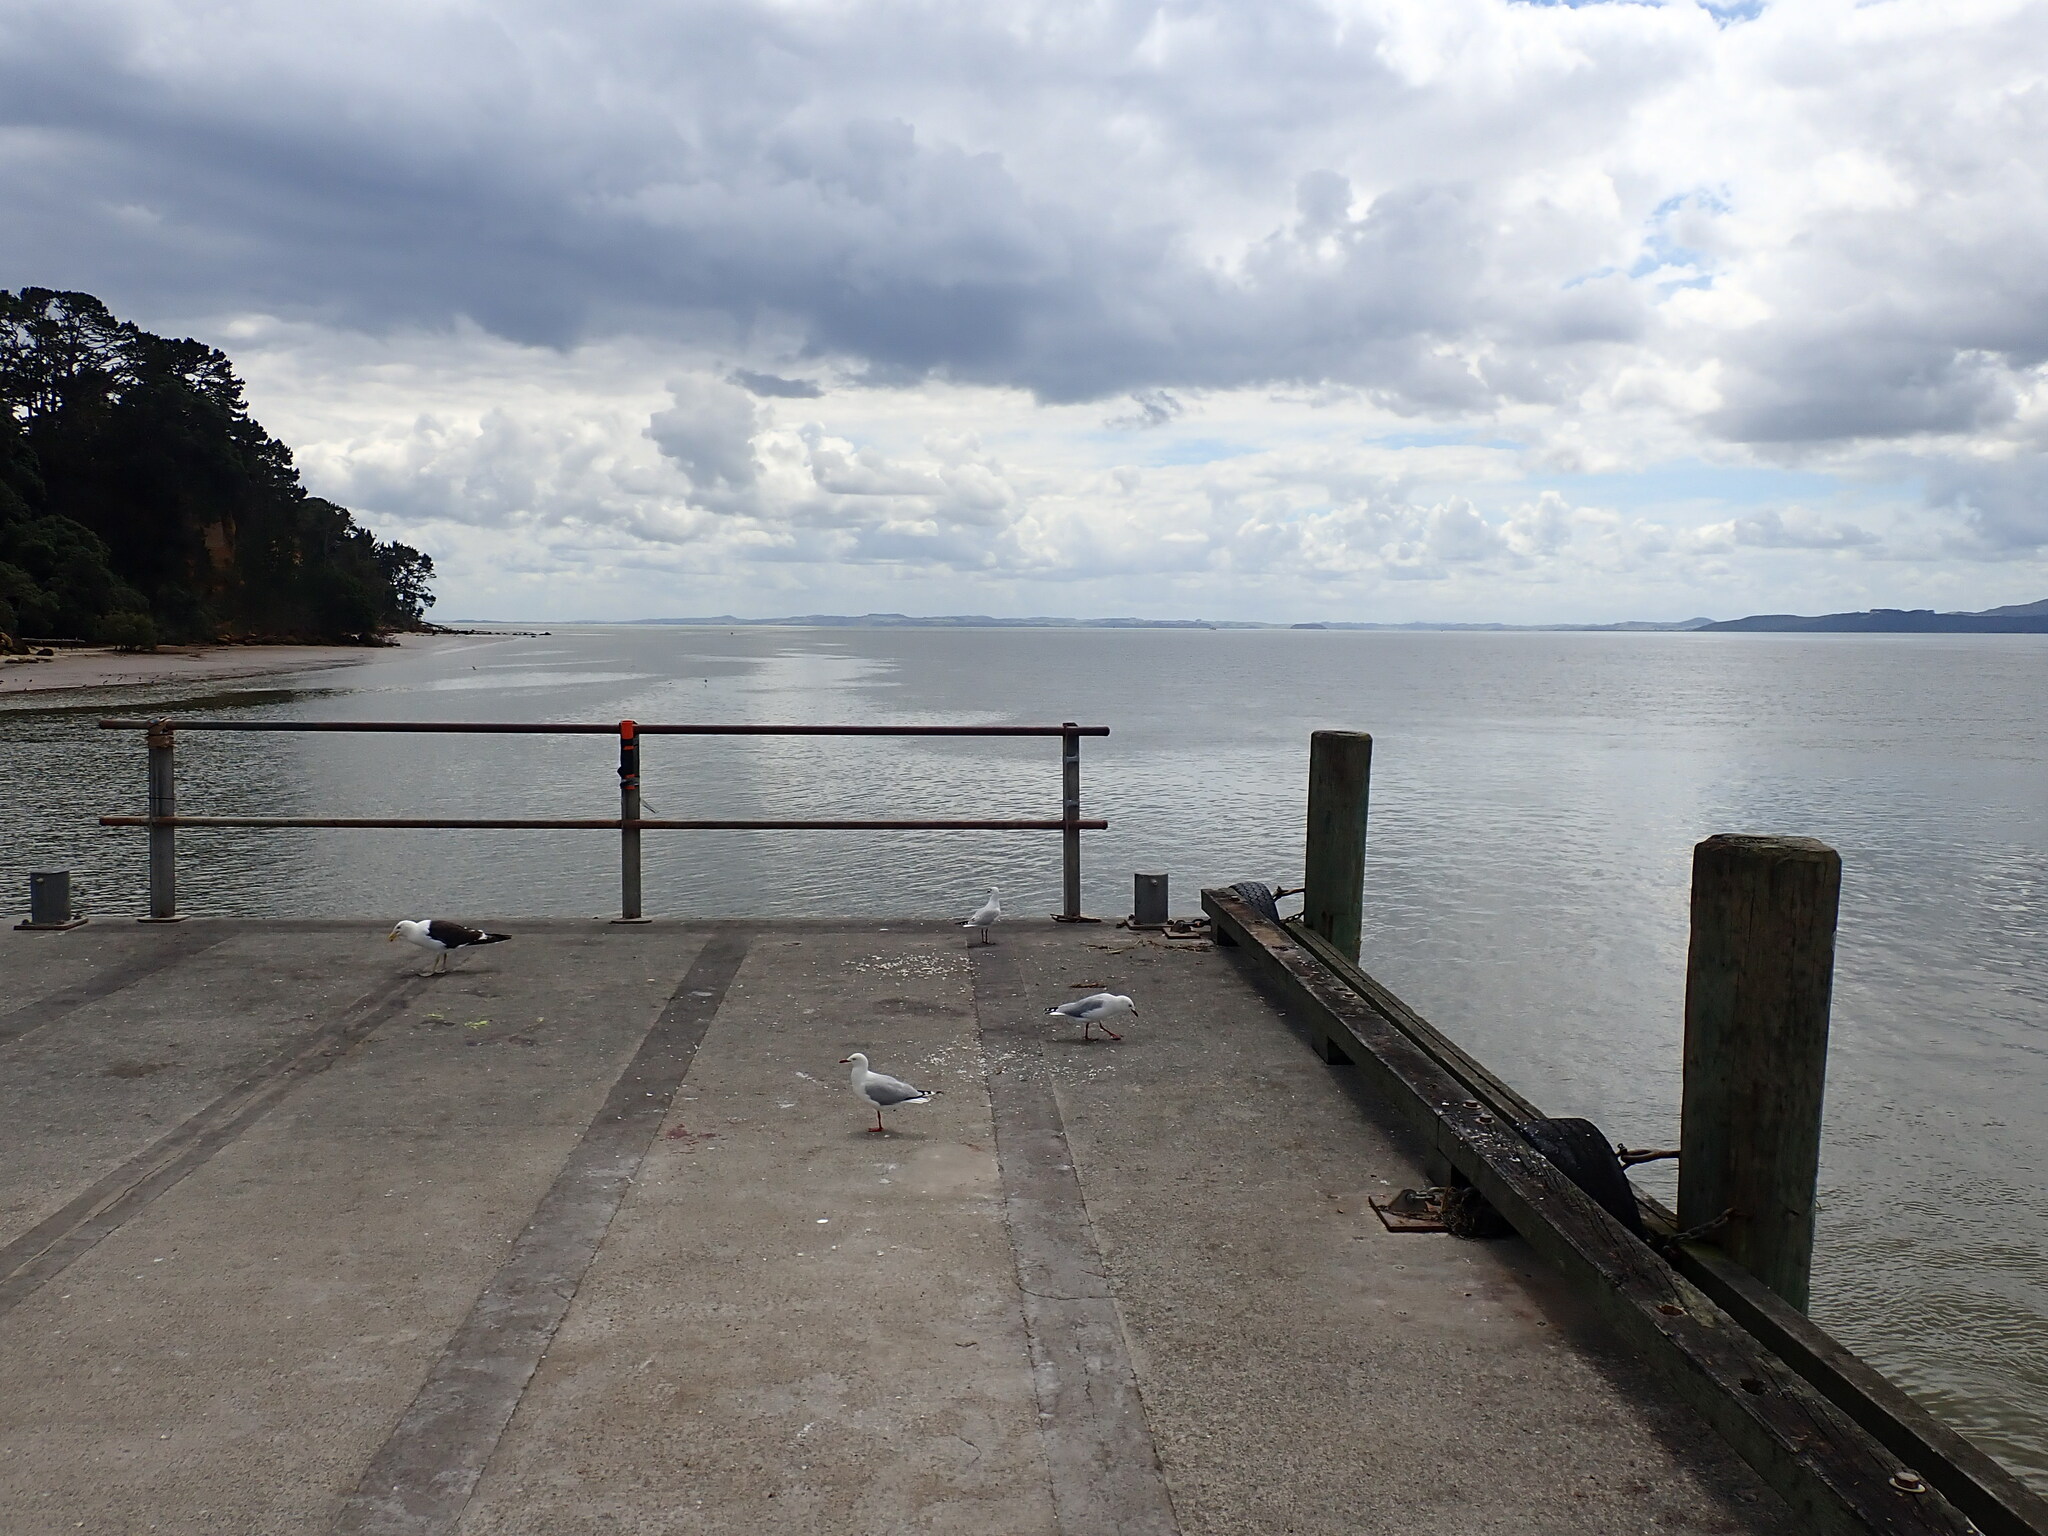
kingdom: Animalia
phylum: Chordata
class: Aves
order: Charadriiformes
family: Laridae
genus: Larus
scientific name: Larus dominicanus
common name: Kelp gull
